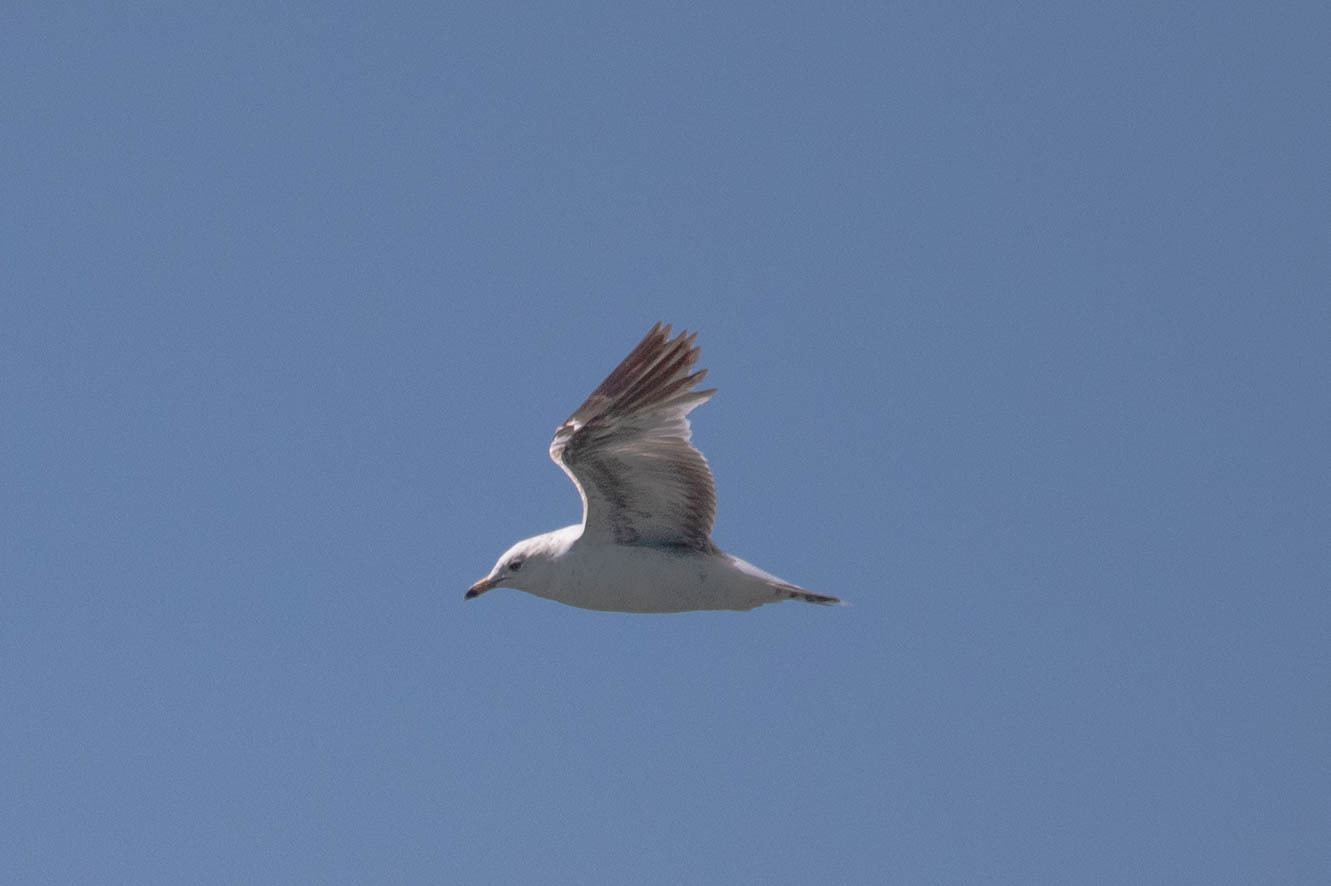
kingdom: Animalia
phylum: Chordata
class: Aves
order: Charadriiformes
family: Laridae
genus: Larus
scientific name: Larus delawarensis
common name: Ring-billed gull
